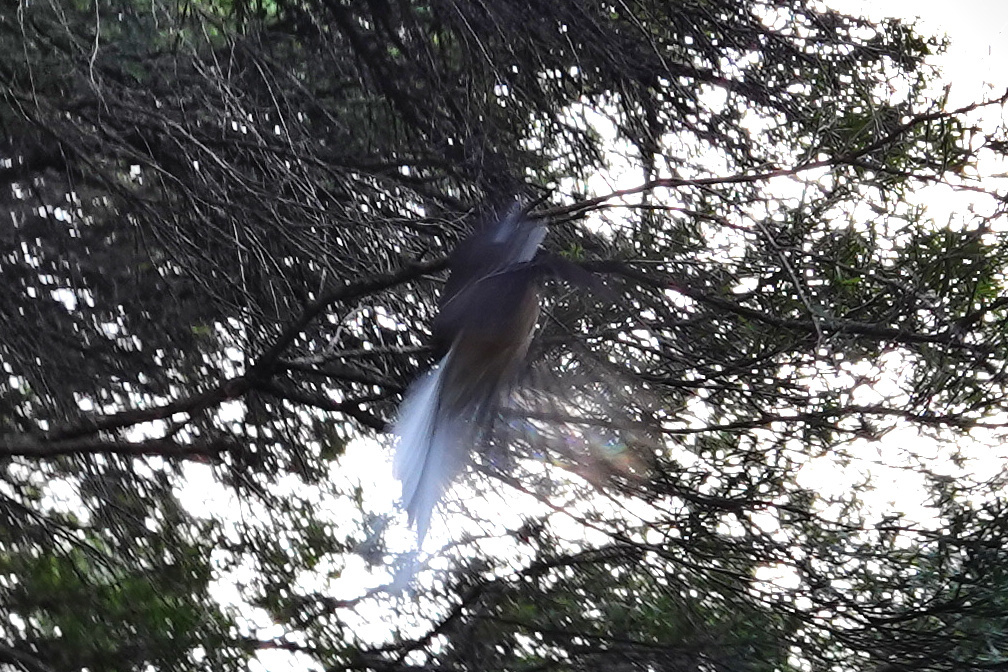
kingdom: Animalia
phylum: Chordata
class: Aves
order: Passeriformes
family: Rhipiduridae
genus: Rhipidura
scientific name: Rhipidura fuliginosa
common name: New zealand fantail
